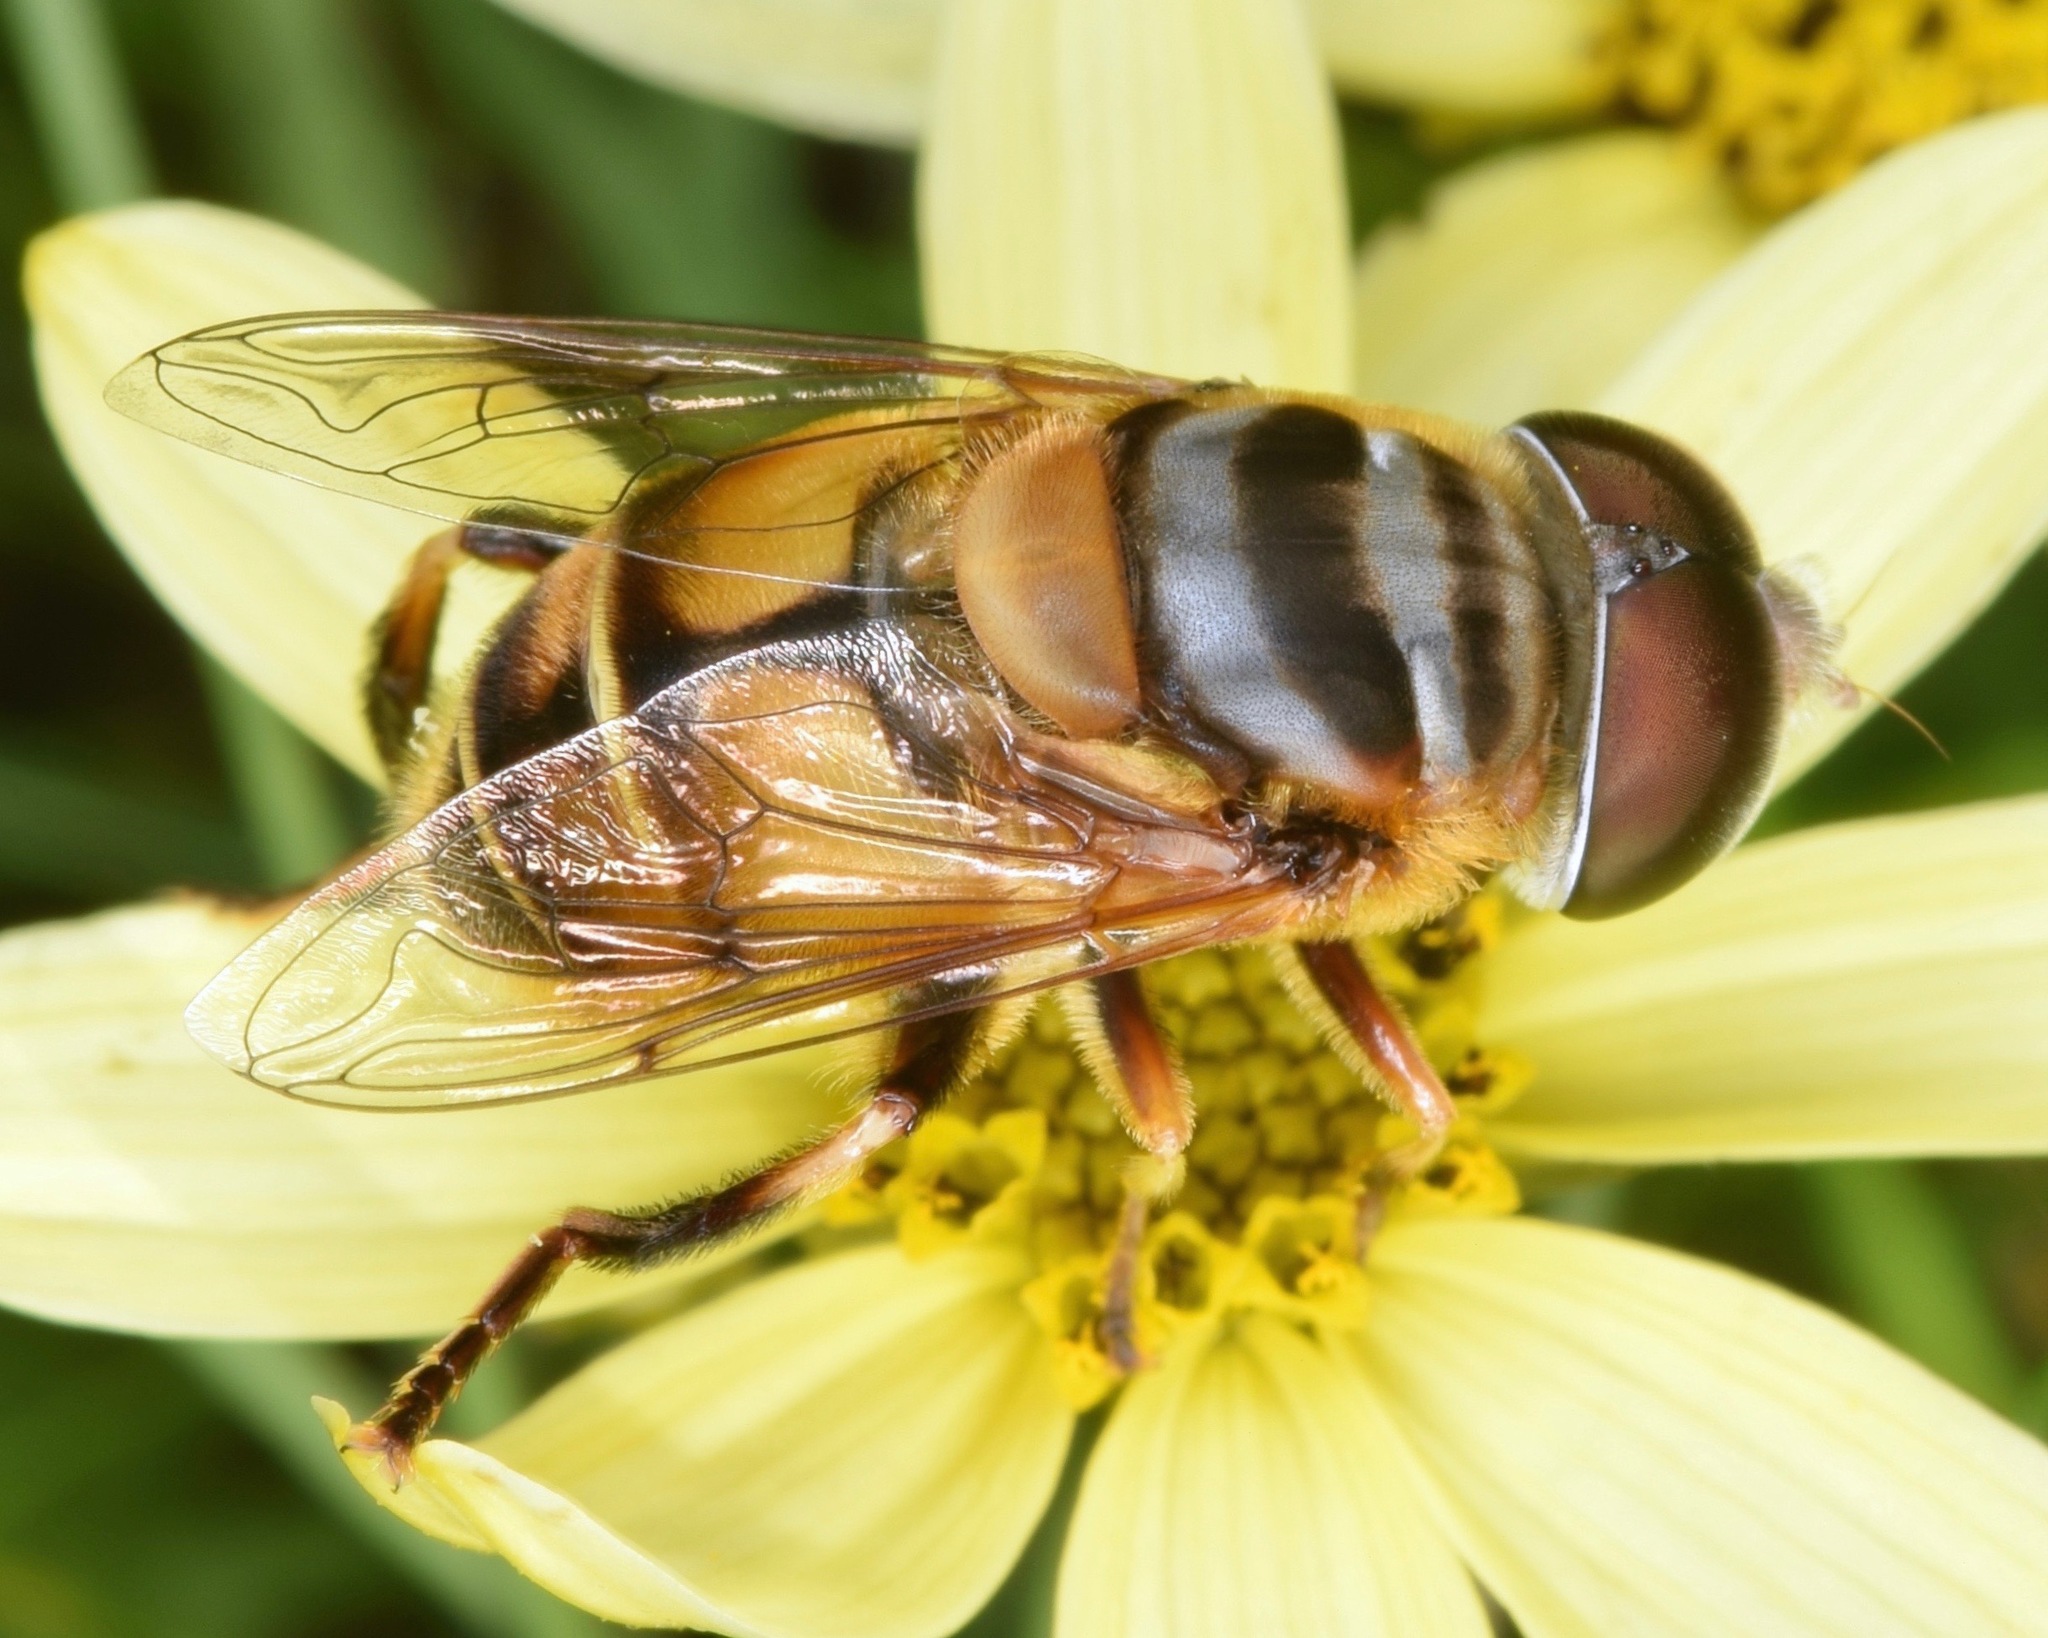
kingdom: Animalia
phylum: Arthropoda
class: Insecta
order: Diptera
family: Syrphidae
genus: Palpada
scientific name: Palpada vinetorum
